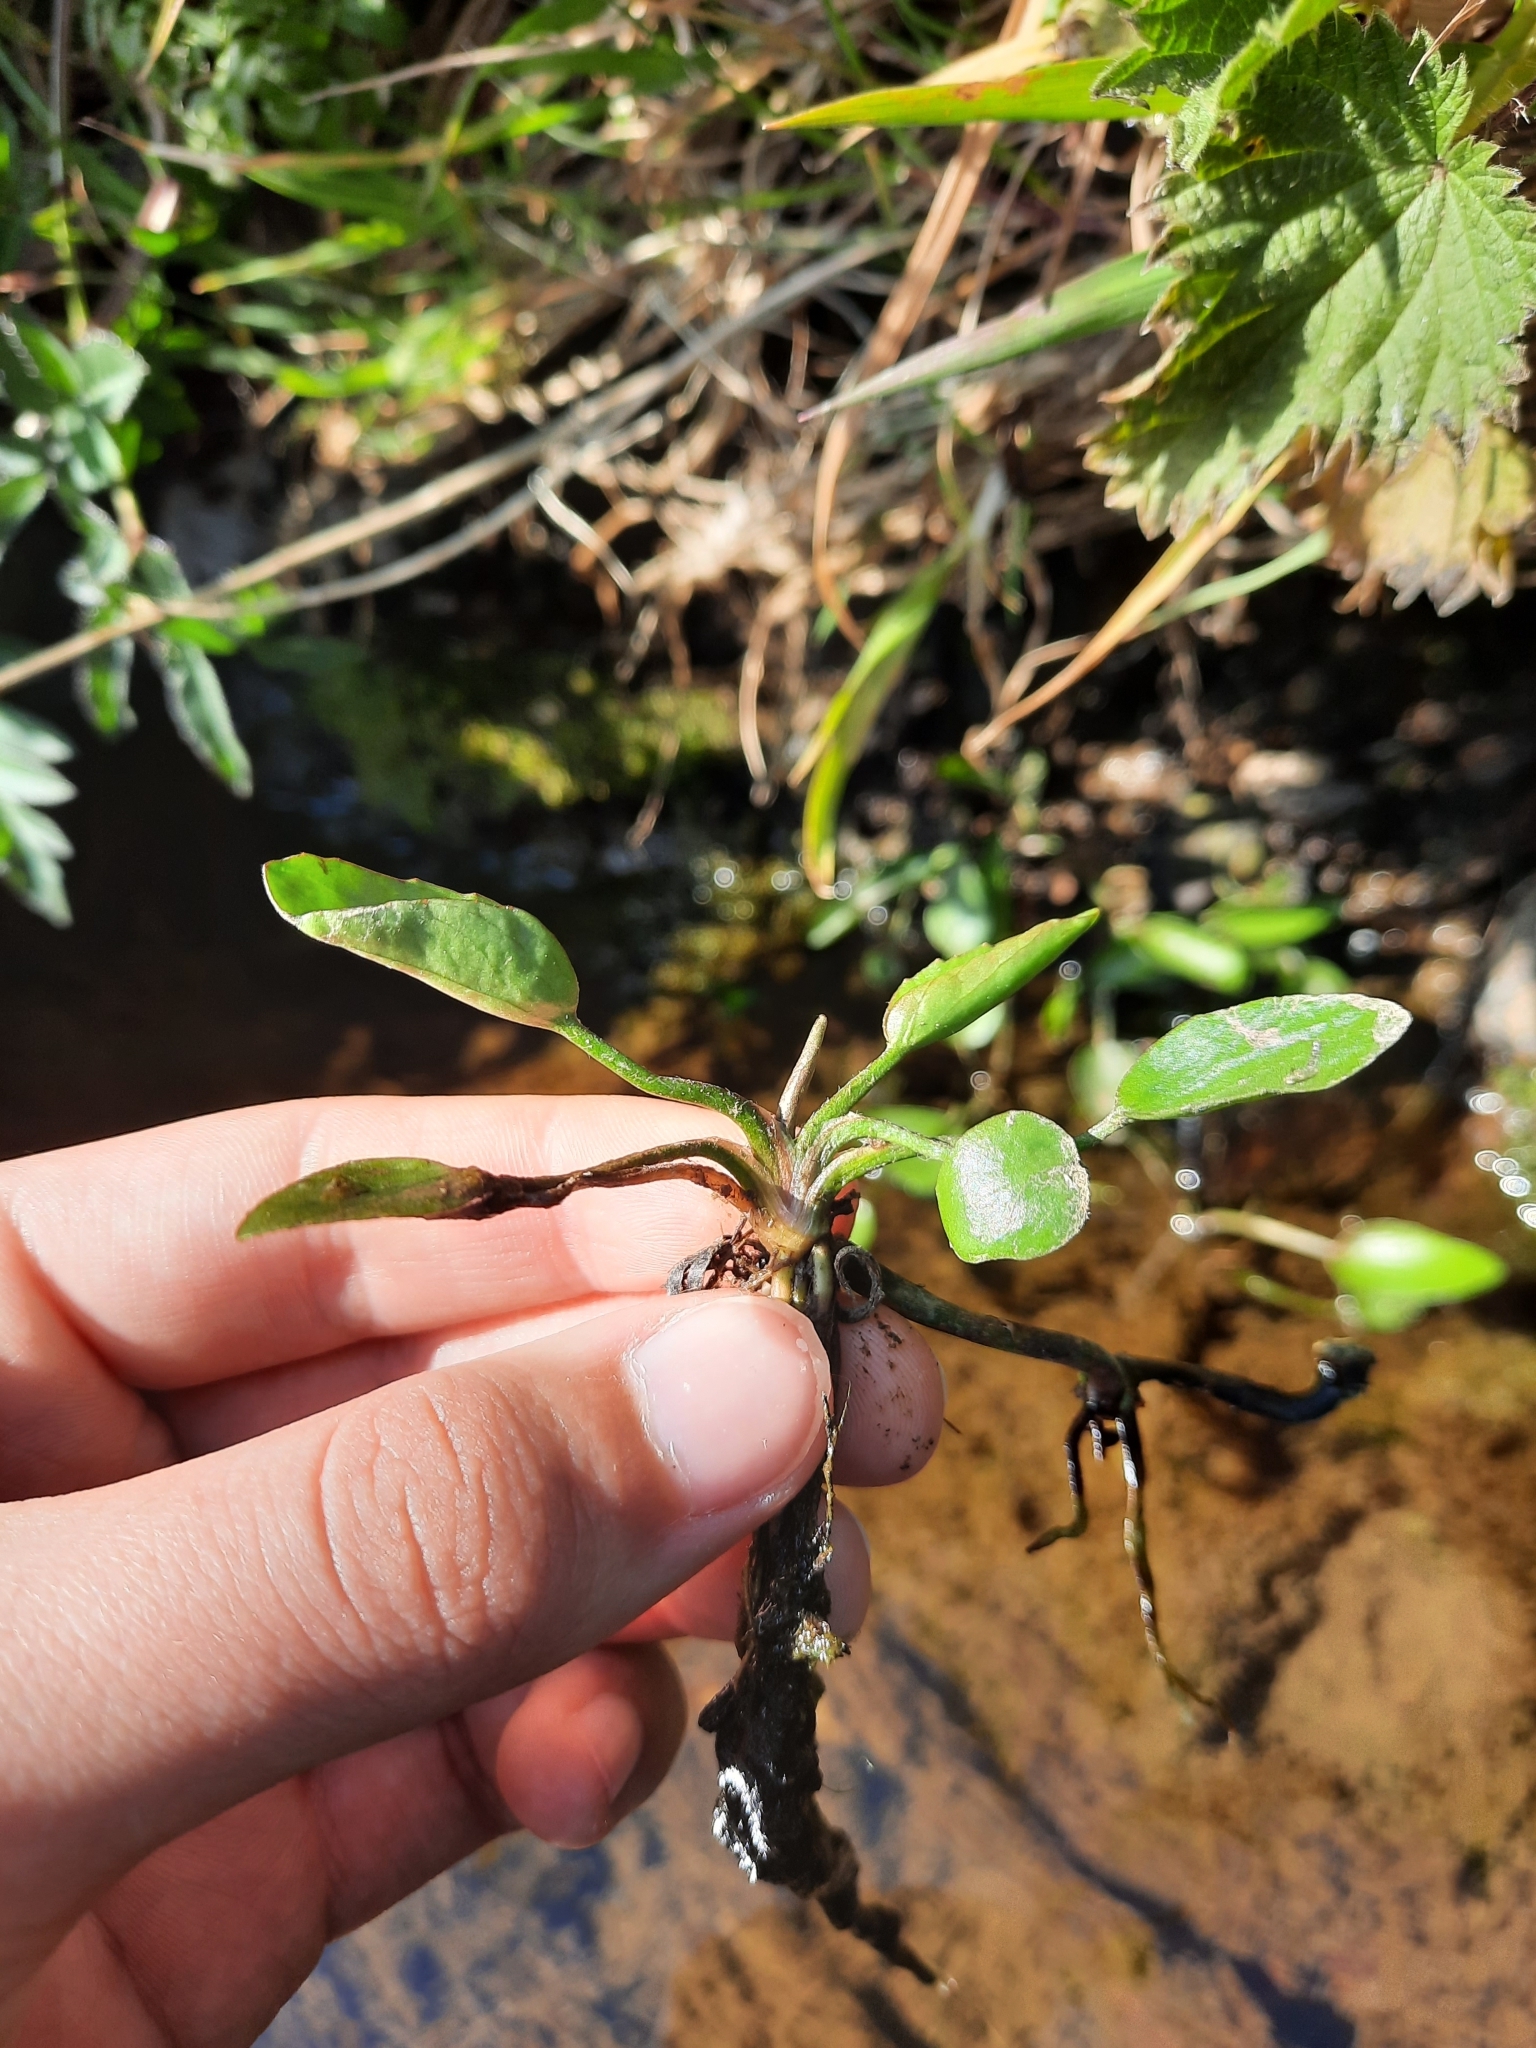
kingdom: Plantae
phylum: Tracheophyta
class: Magnoliopsida
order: Ranunculales
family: Ranunculaceae
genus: Ranunculus
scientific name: Ranunculus flammula
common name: Lesser spearwort
